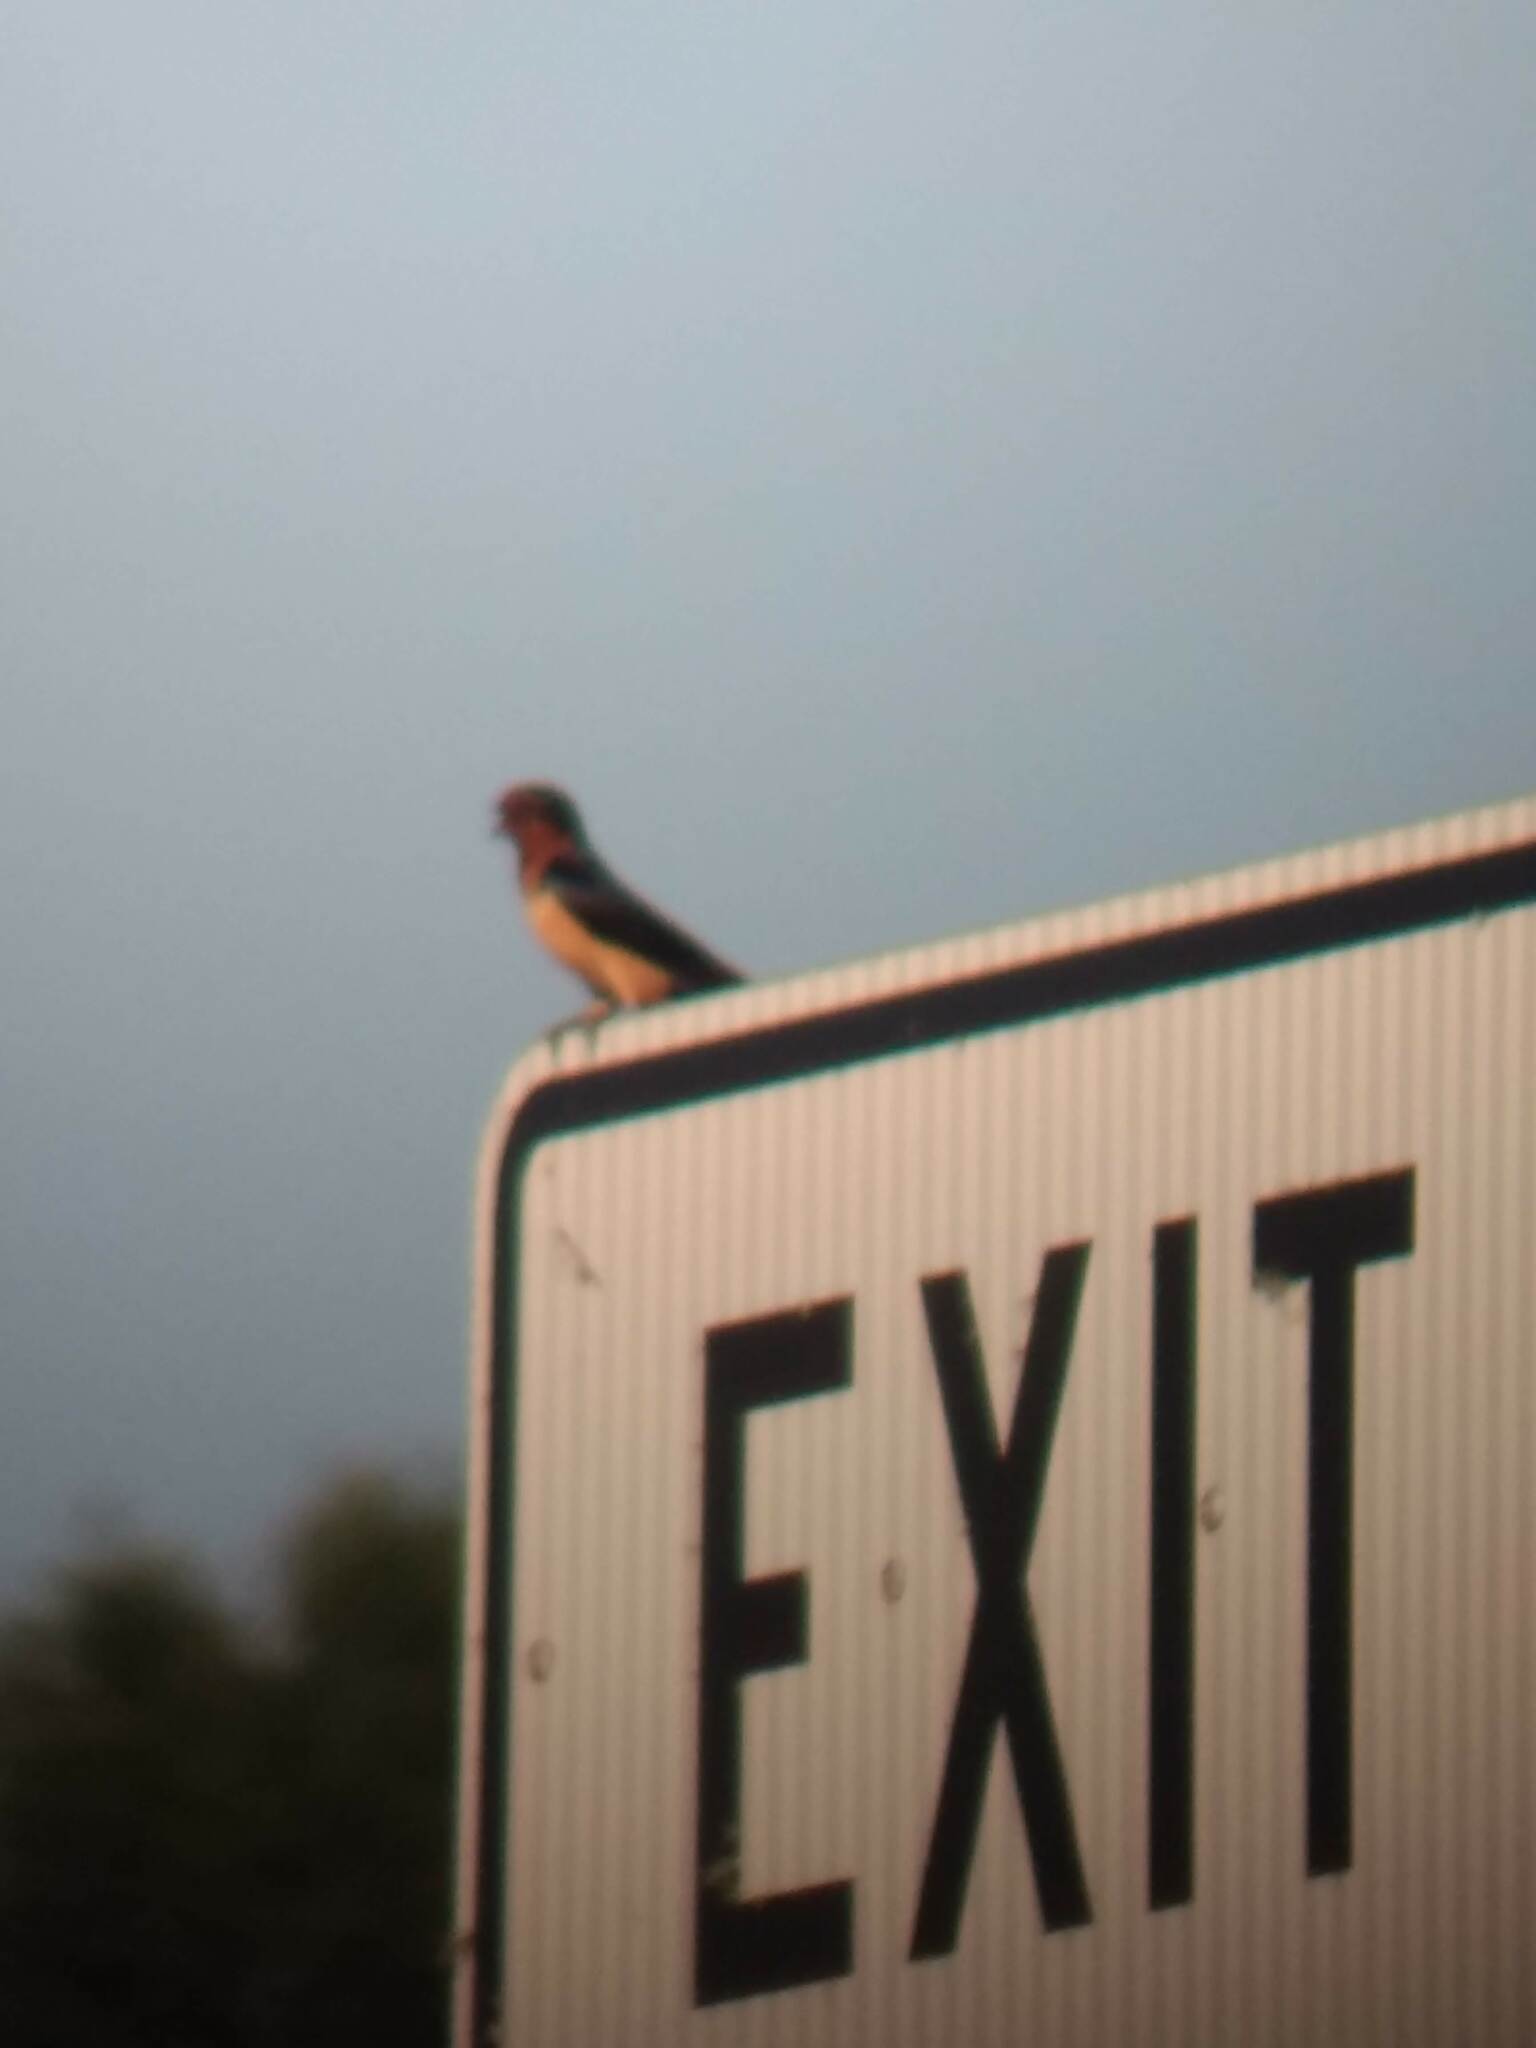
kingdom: Animalia
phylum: Chordata
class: Aves
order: Passeriformes
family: Hirundinidae
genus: Hirundo
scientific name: Hirundo rustica
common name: Barn swallow
